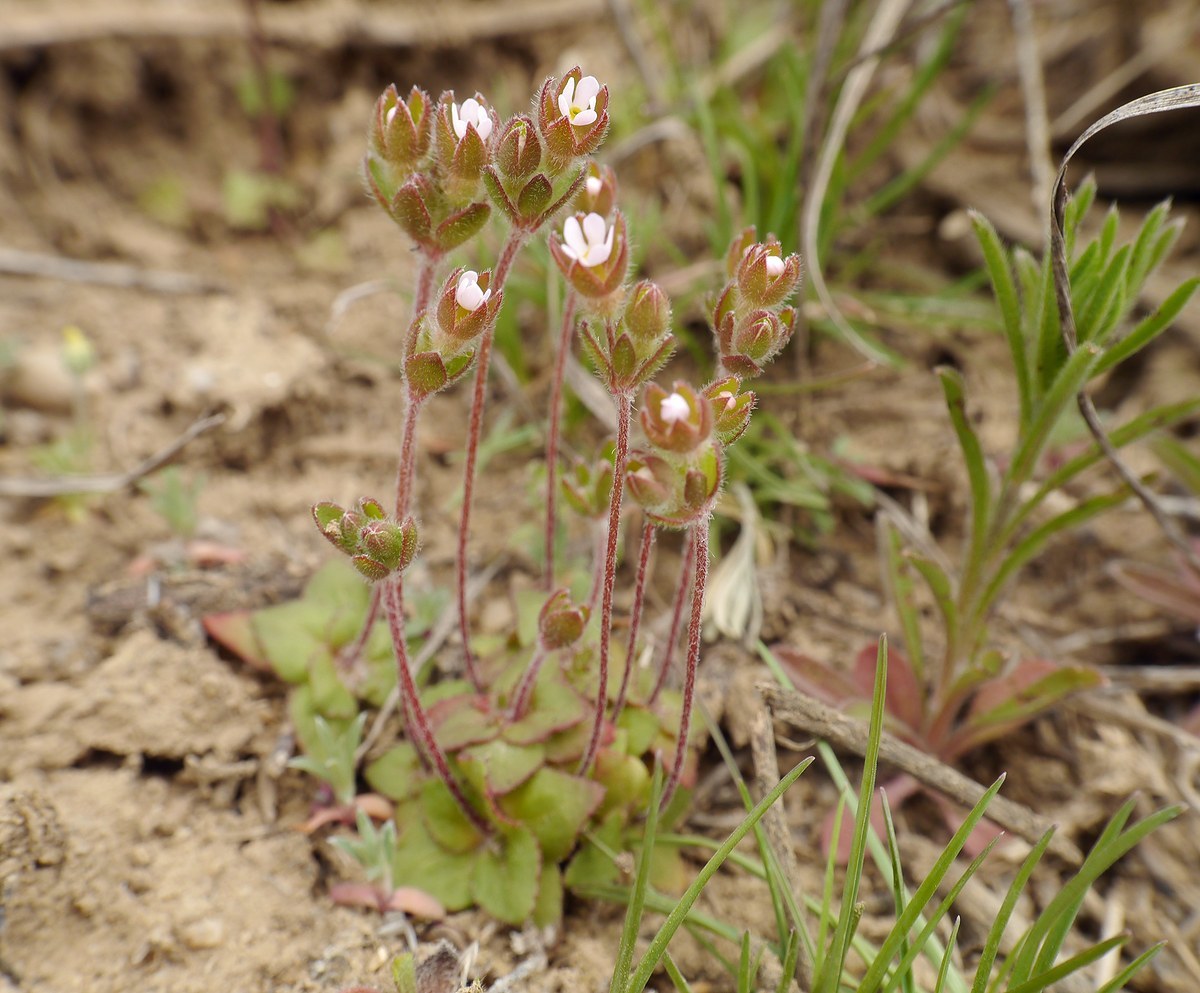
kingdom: Plantae
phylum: Tracheophyta
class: Magnoliopsida
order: Ericales
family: Primulaceae
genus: Androsace
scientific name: Androsace maxima
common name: Annual androsace
